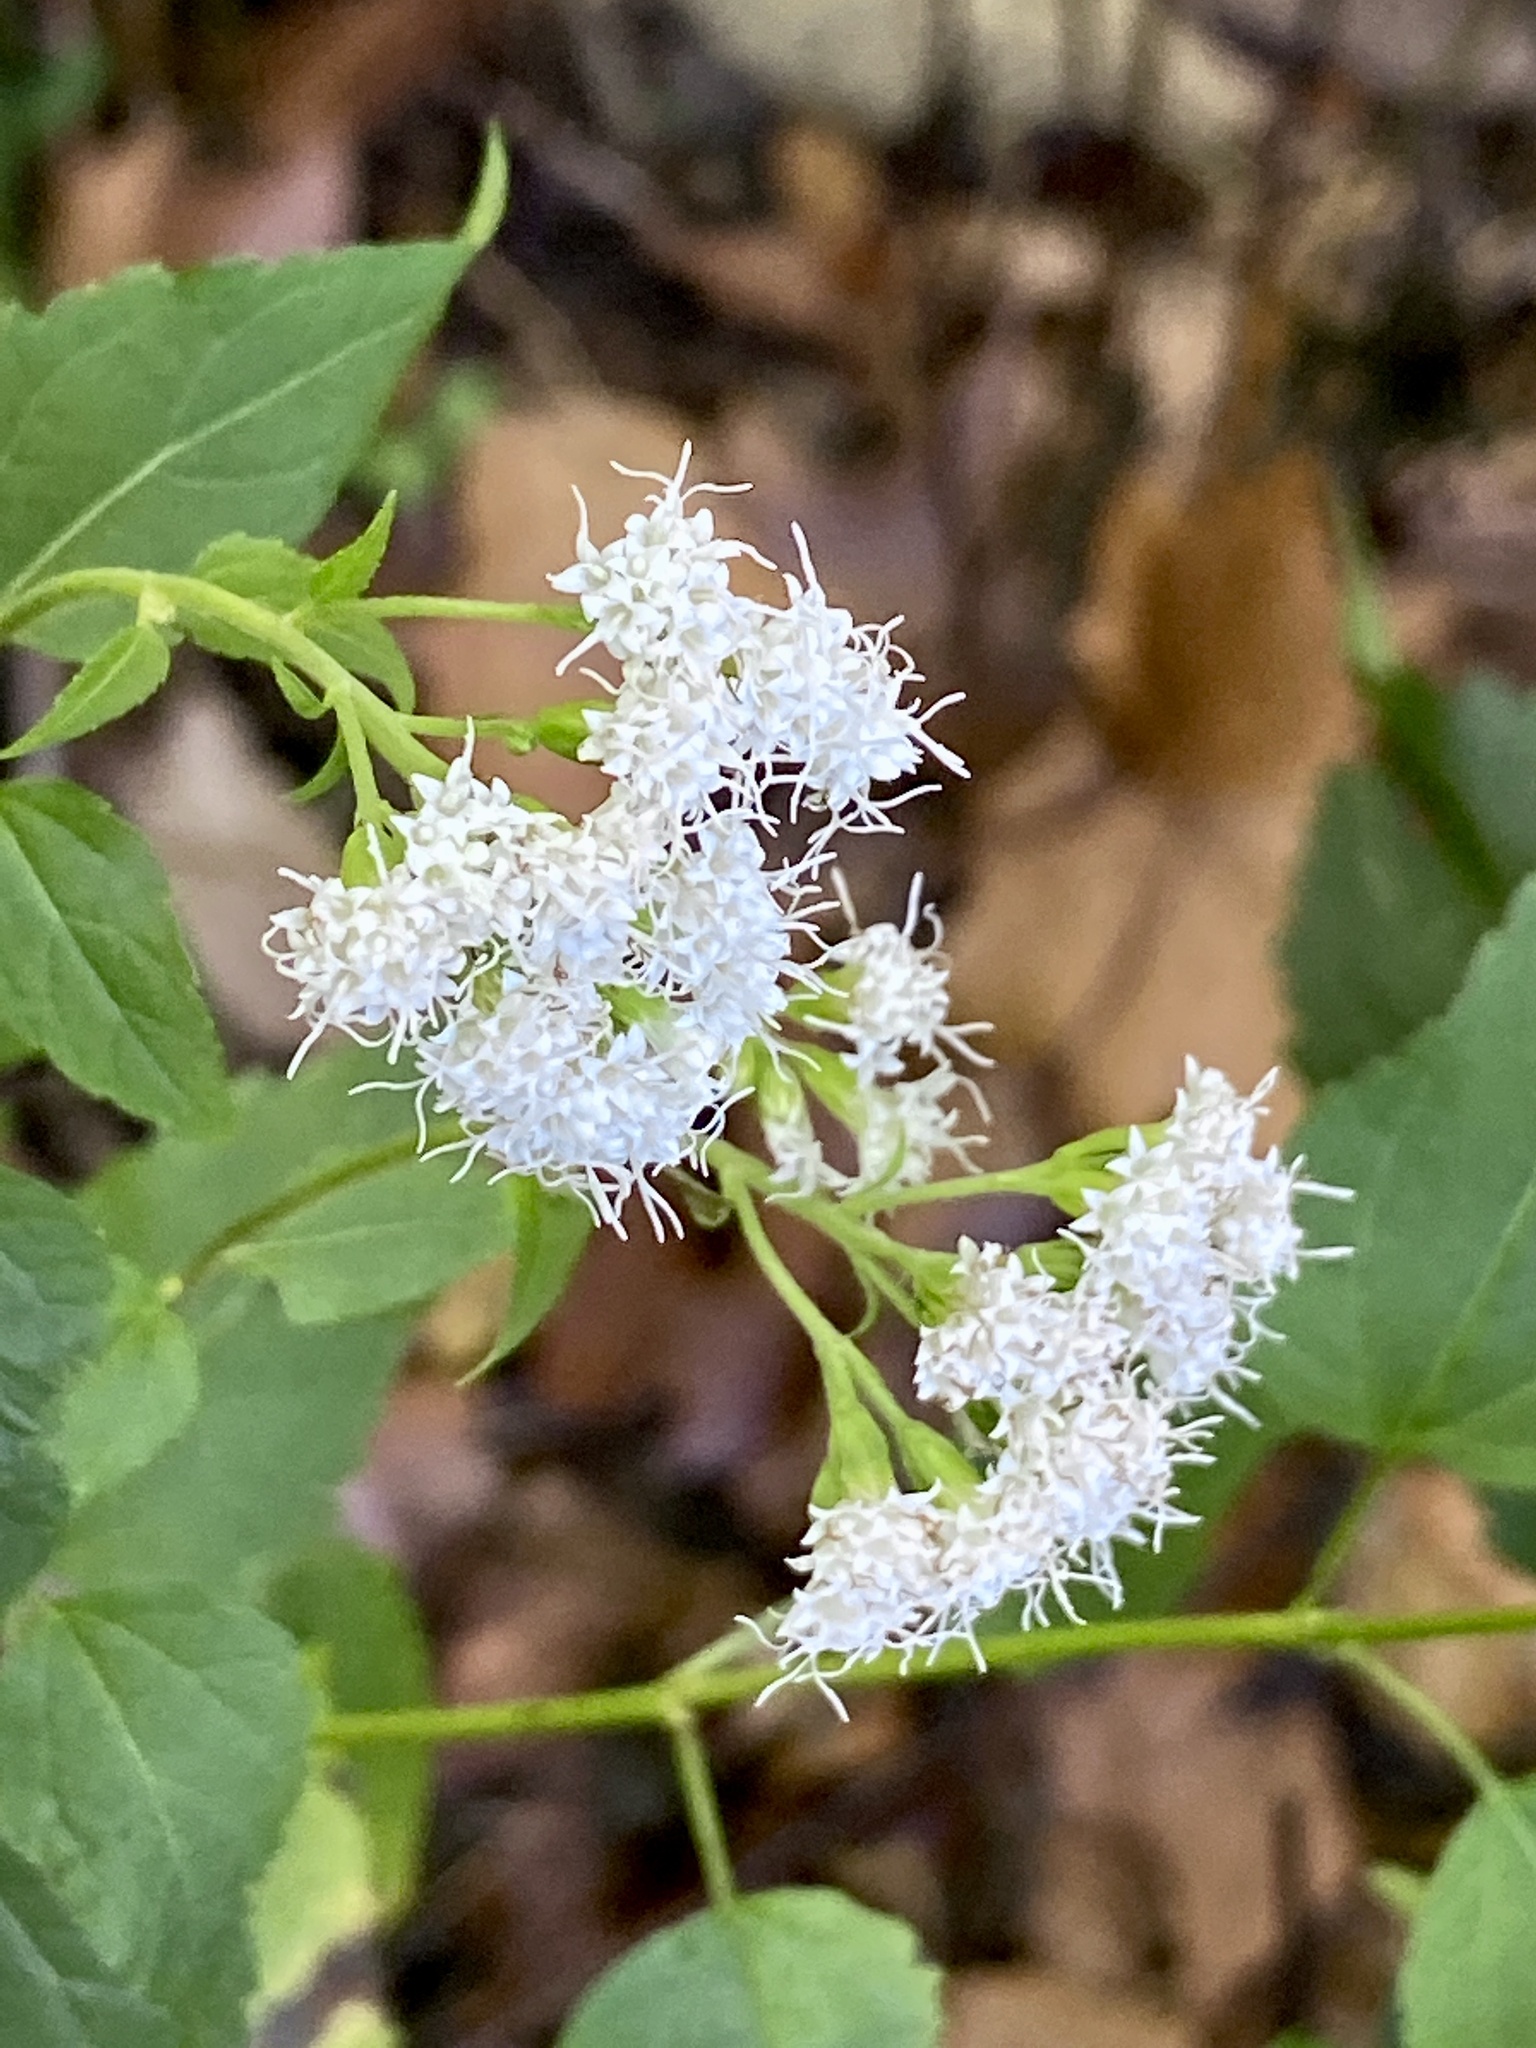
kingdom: Plantae
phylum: Tracheophyta
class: Magnoliopsida
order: Asterales
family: Asteraceae
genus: Ageratina
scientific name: Ageratina altissima
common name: White snakeroot
